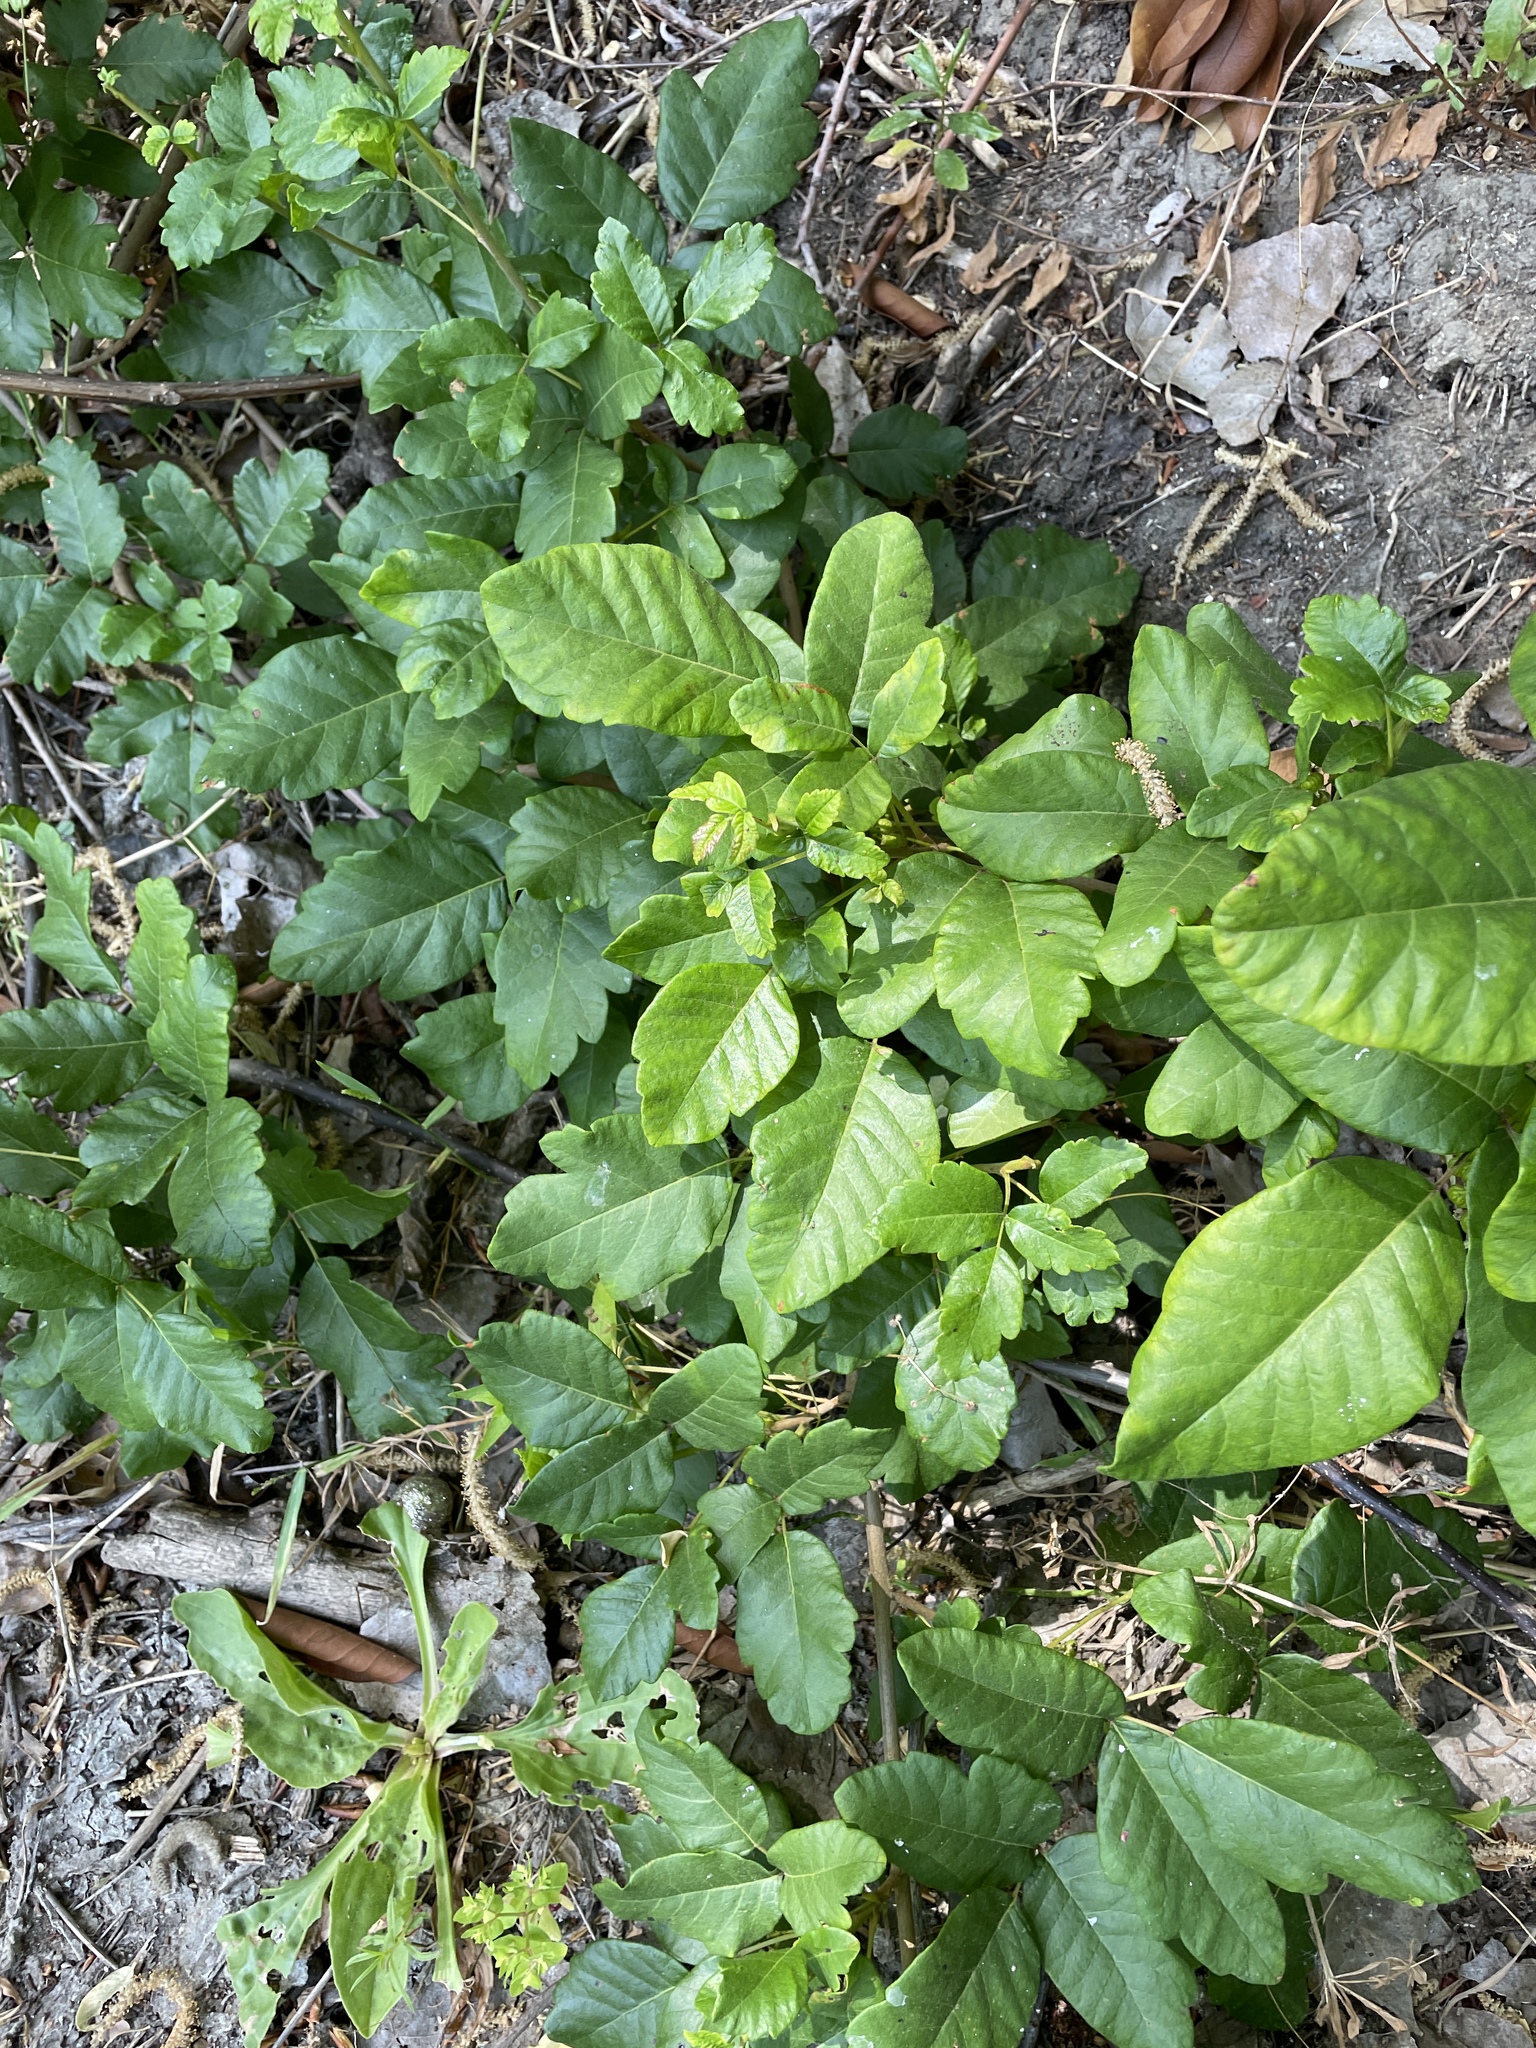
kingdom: Plantae
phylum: Tracheophyta
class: Magnoliopsida
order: Sapindales
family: Anacardiaceae
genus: Toxicodendron
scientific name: Toxicodendron diversilobum
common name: Pacific poison-oak
